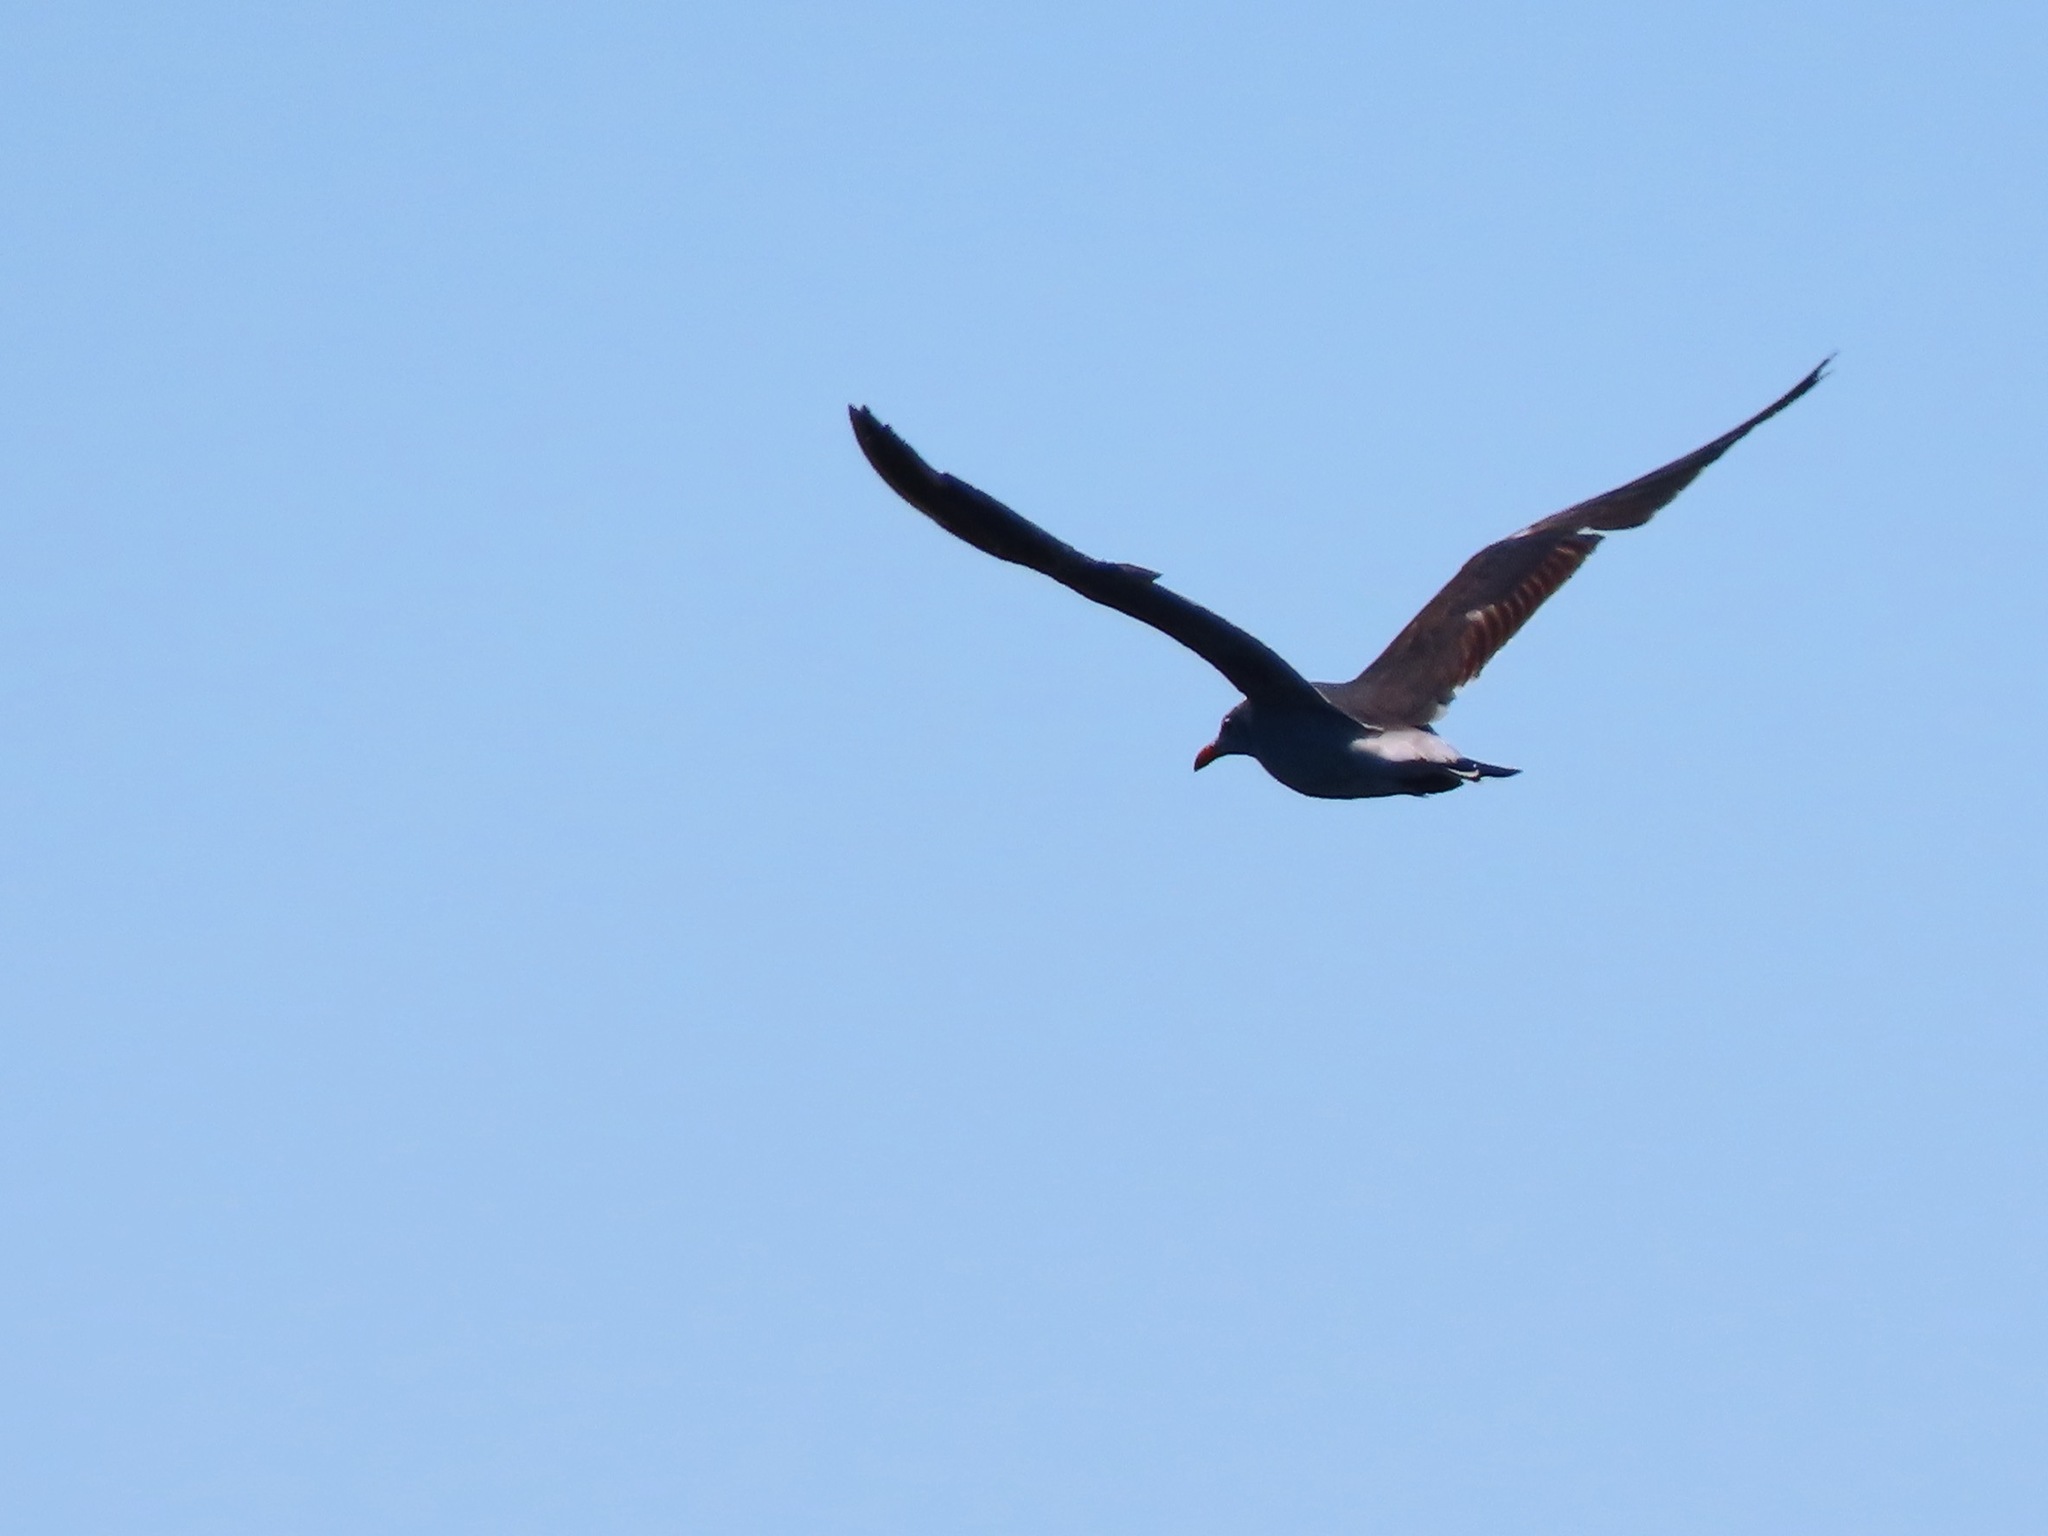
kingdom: Animalia
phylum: Chordata
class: Aves
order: Charadriiformes
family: Laridae
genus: Larus
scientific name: Larus heermanni
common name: Heermann's gull
